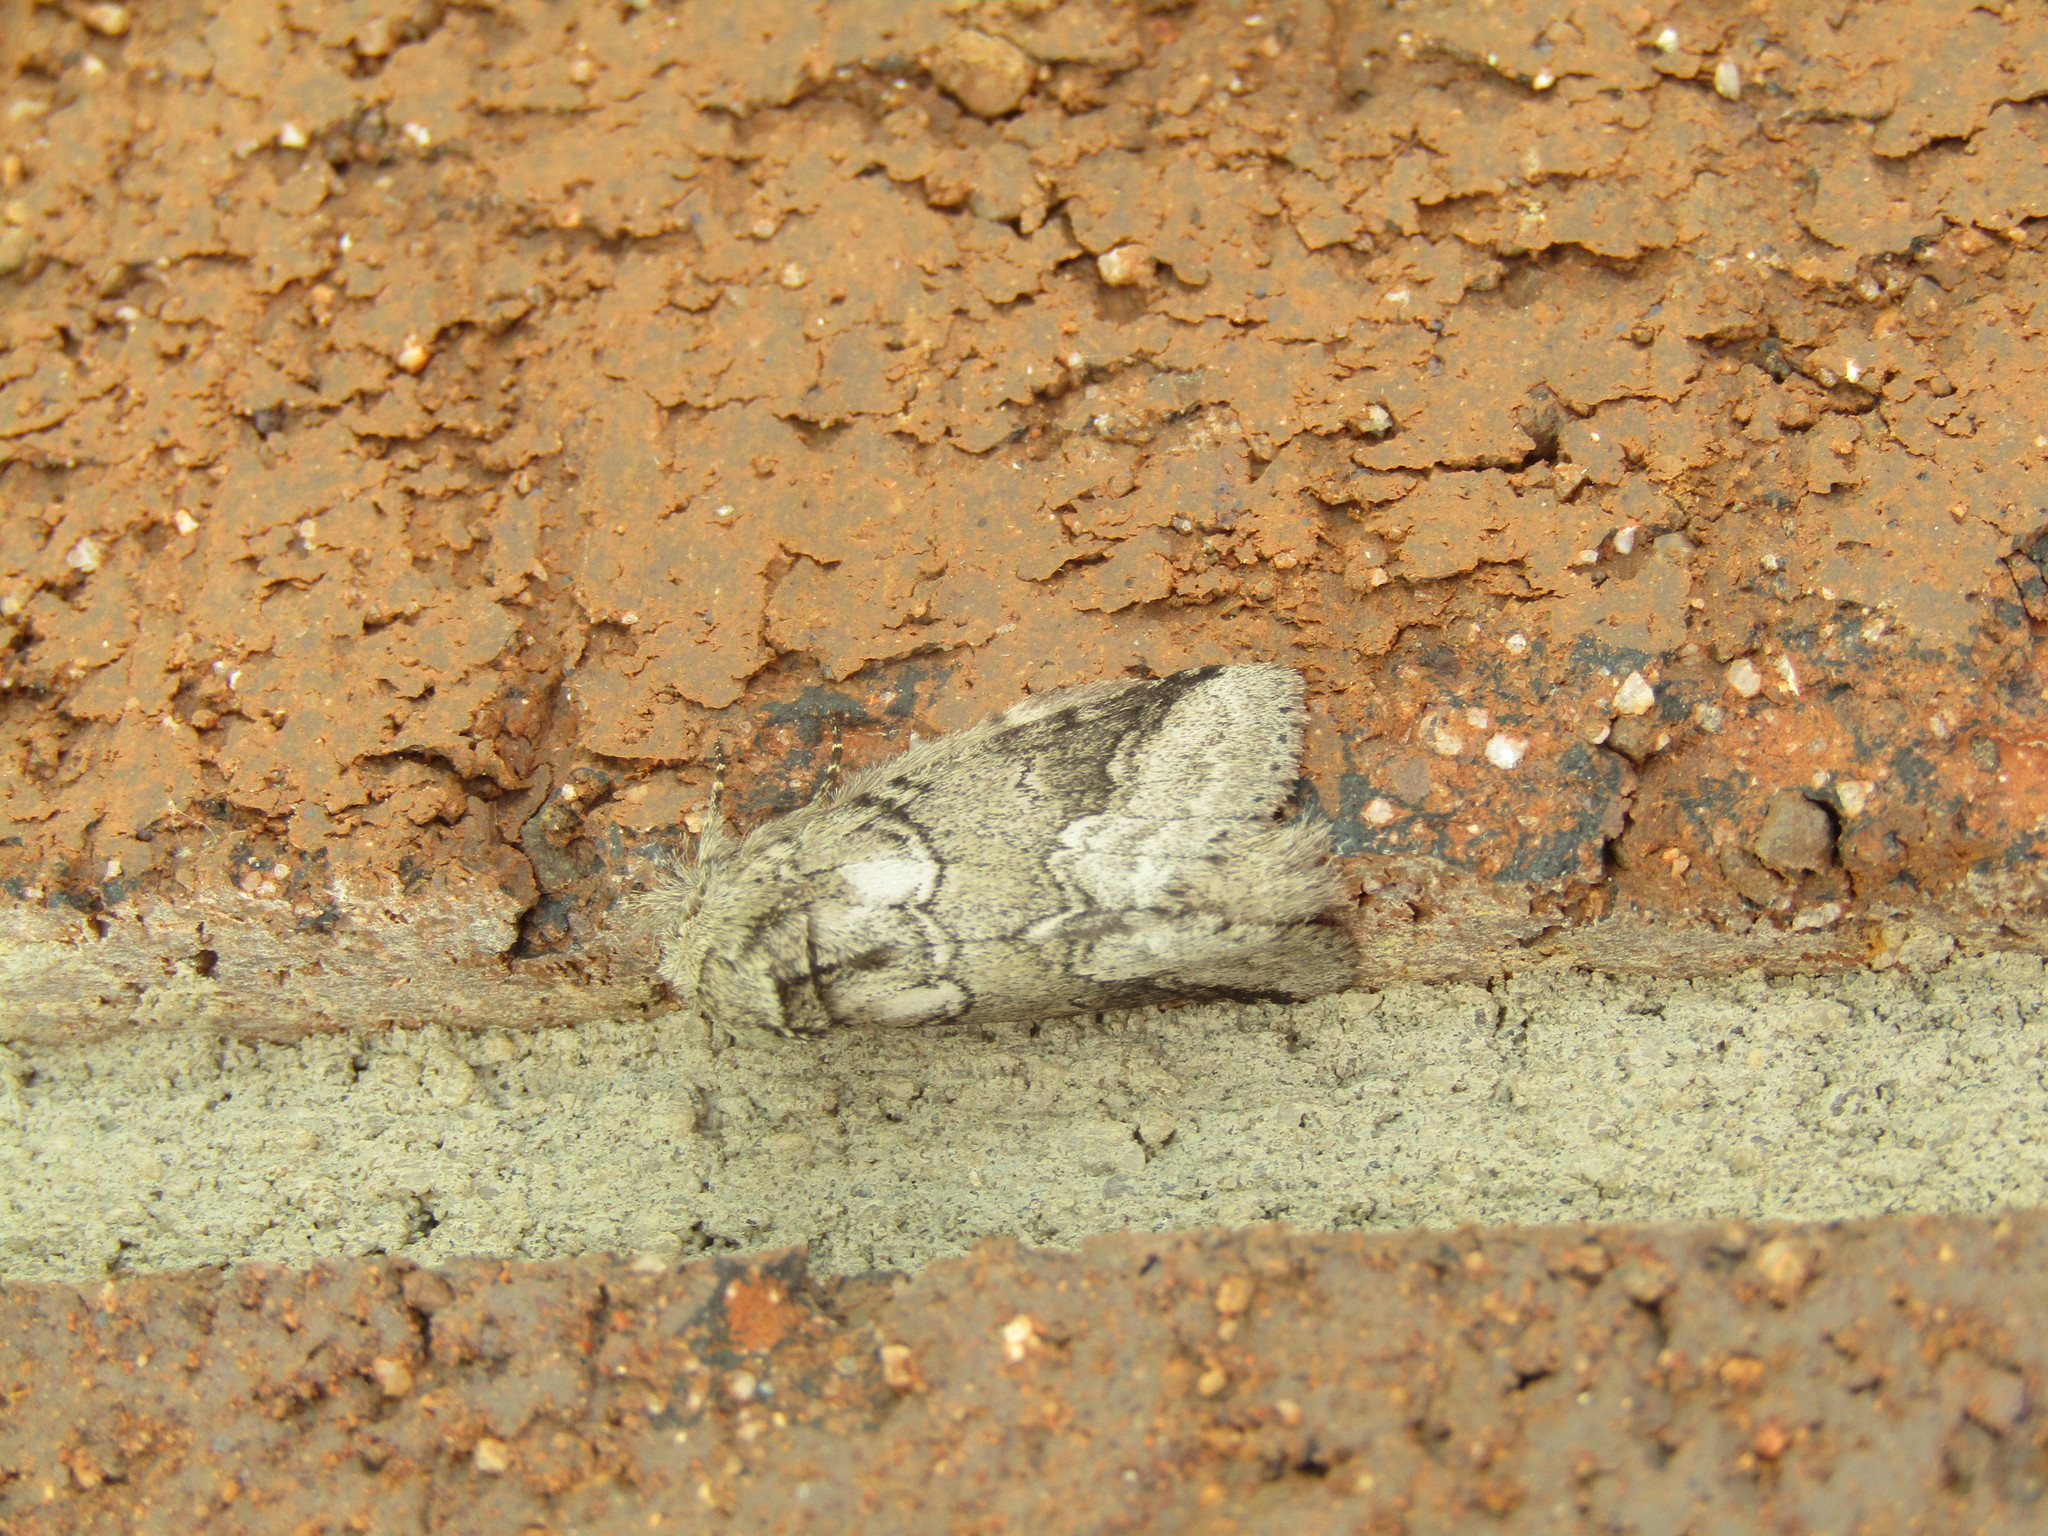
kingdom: Animalia
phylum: Arthropoda
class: Insecta
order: Lepidoptera
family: Notodontidae
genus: Lochmaeus
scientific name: Lochmaeus bilineata
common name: Double-lined prominent
